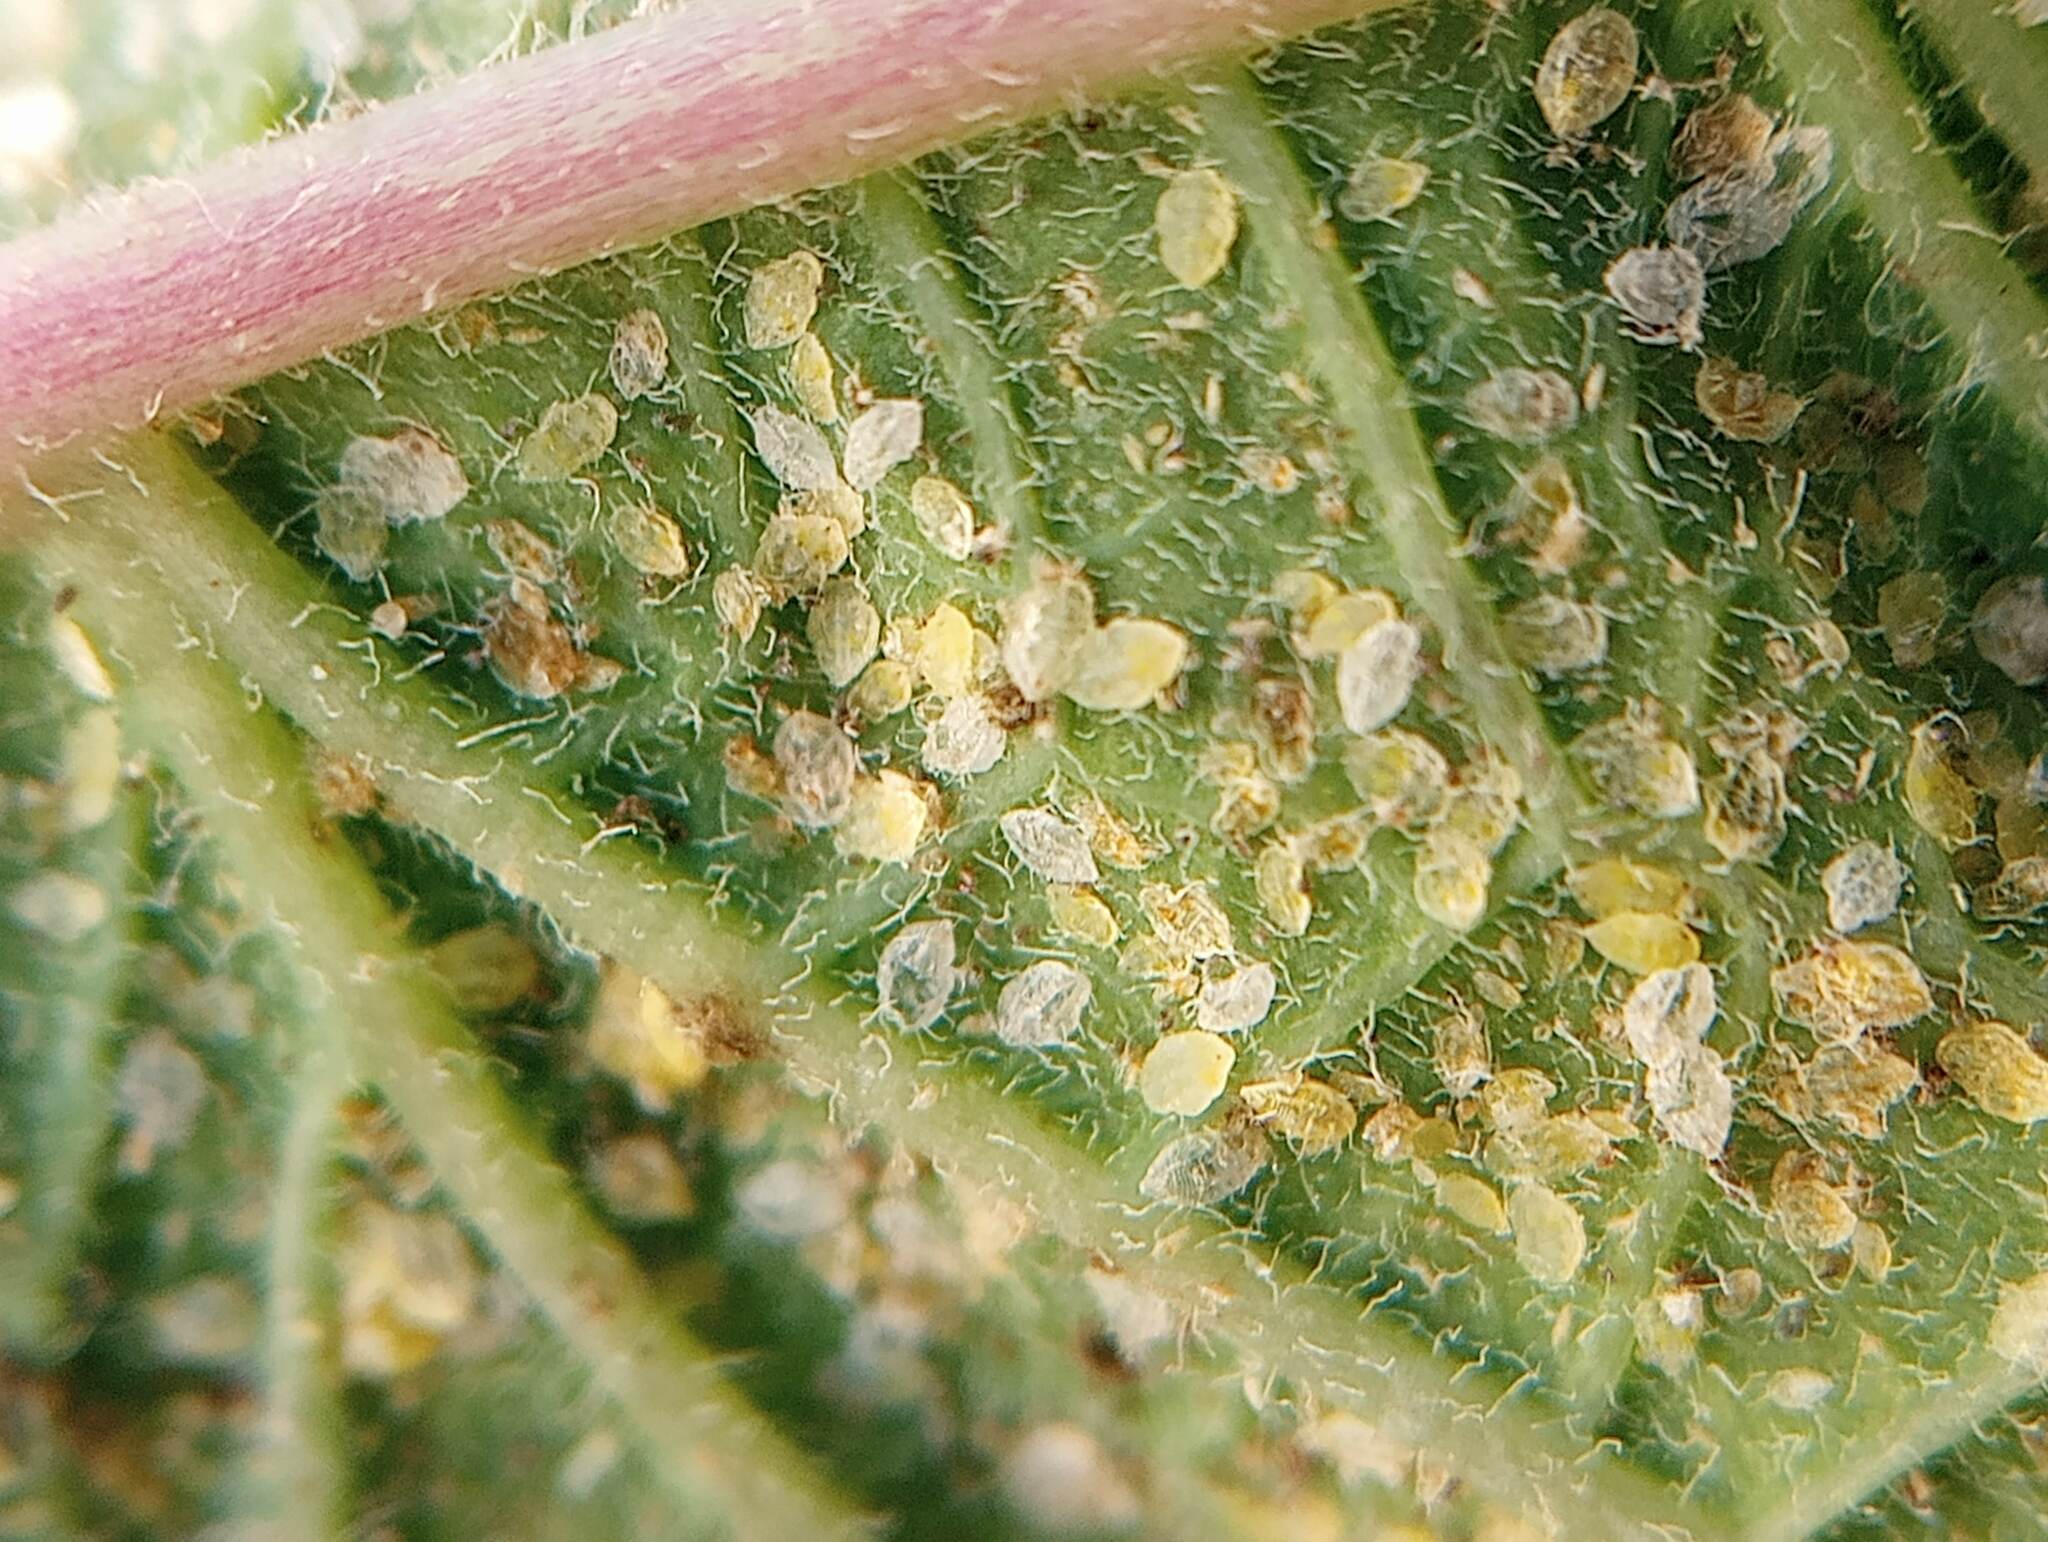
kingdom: Animalia
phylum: Arthropoda
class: Insecta
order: Hemiptera
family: Aleyrodidae
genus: Bemisia
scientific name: Bemisia tabaci
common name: Sweetpotato whitefly
